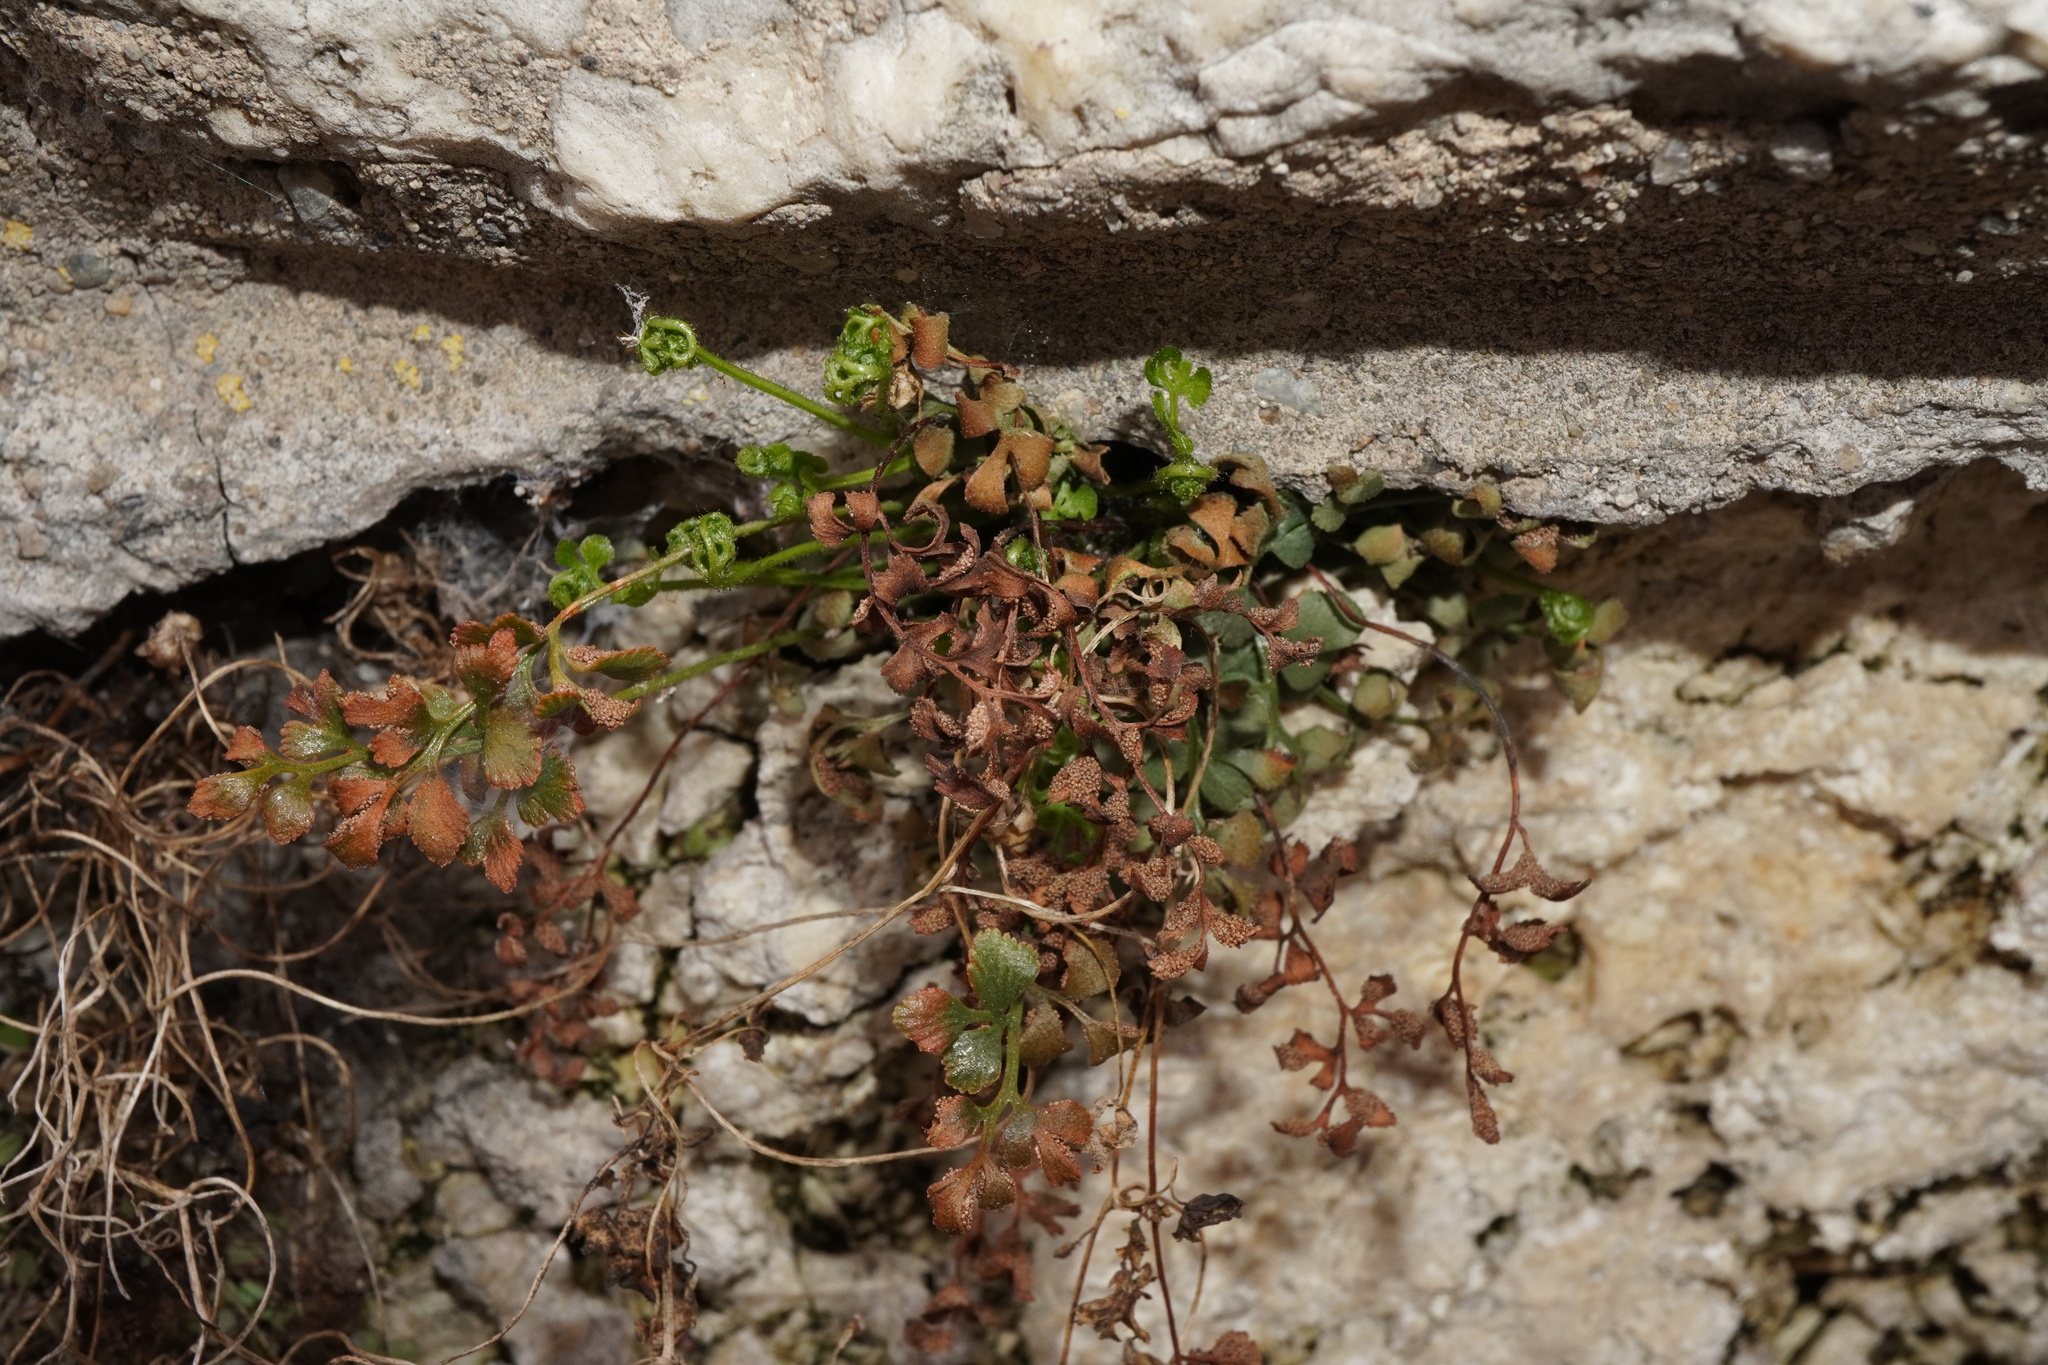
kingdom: Plantae
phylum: Tracheophyta
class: Polypodiopsida
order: Polypodiales
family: Aspleniaceae
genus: Asplenium
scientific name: Asplenium ruta-muraria
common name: Wall-rue
